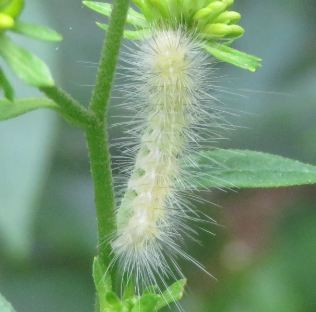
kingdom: Animalia
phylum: Arthropoda
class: Insecta
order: Lepidoptera
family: Erebidae
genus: Spilosoma
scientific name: Spilosoma virginica
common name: Virginia tiger moth
